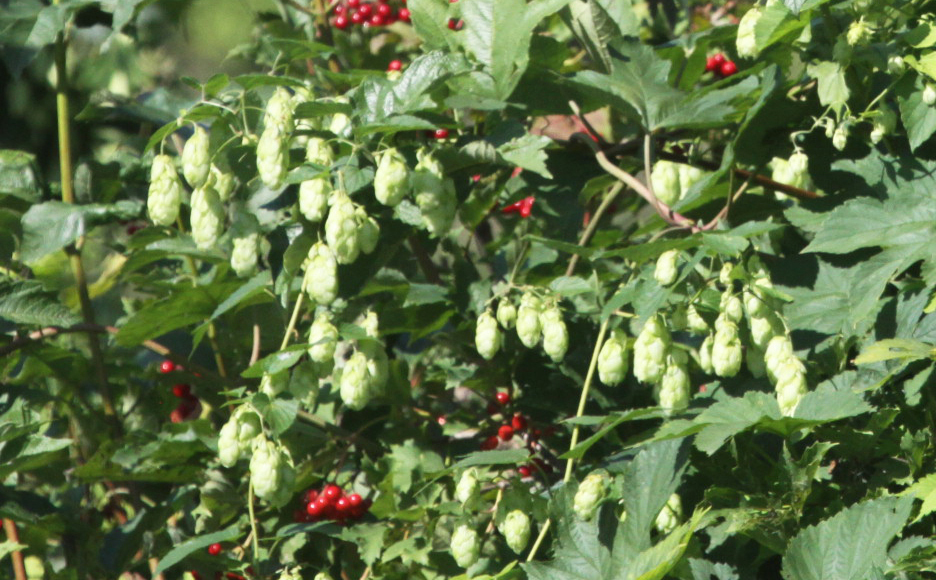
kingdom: Plantae
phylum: Tracheophyta
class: Magnoliopsida
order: Rosales
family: Cannabaceae
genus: Humulus
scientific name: Humulus lupulus
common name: Hop
